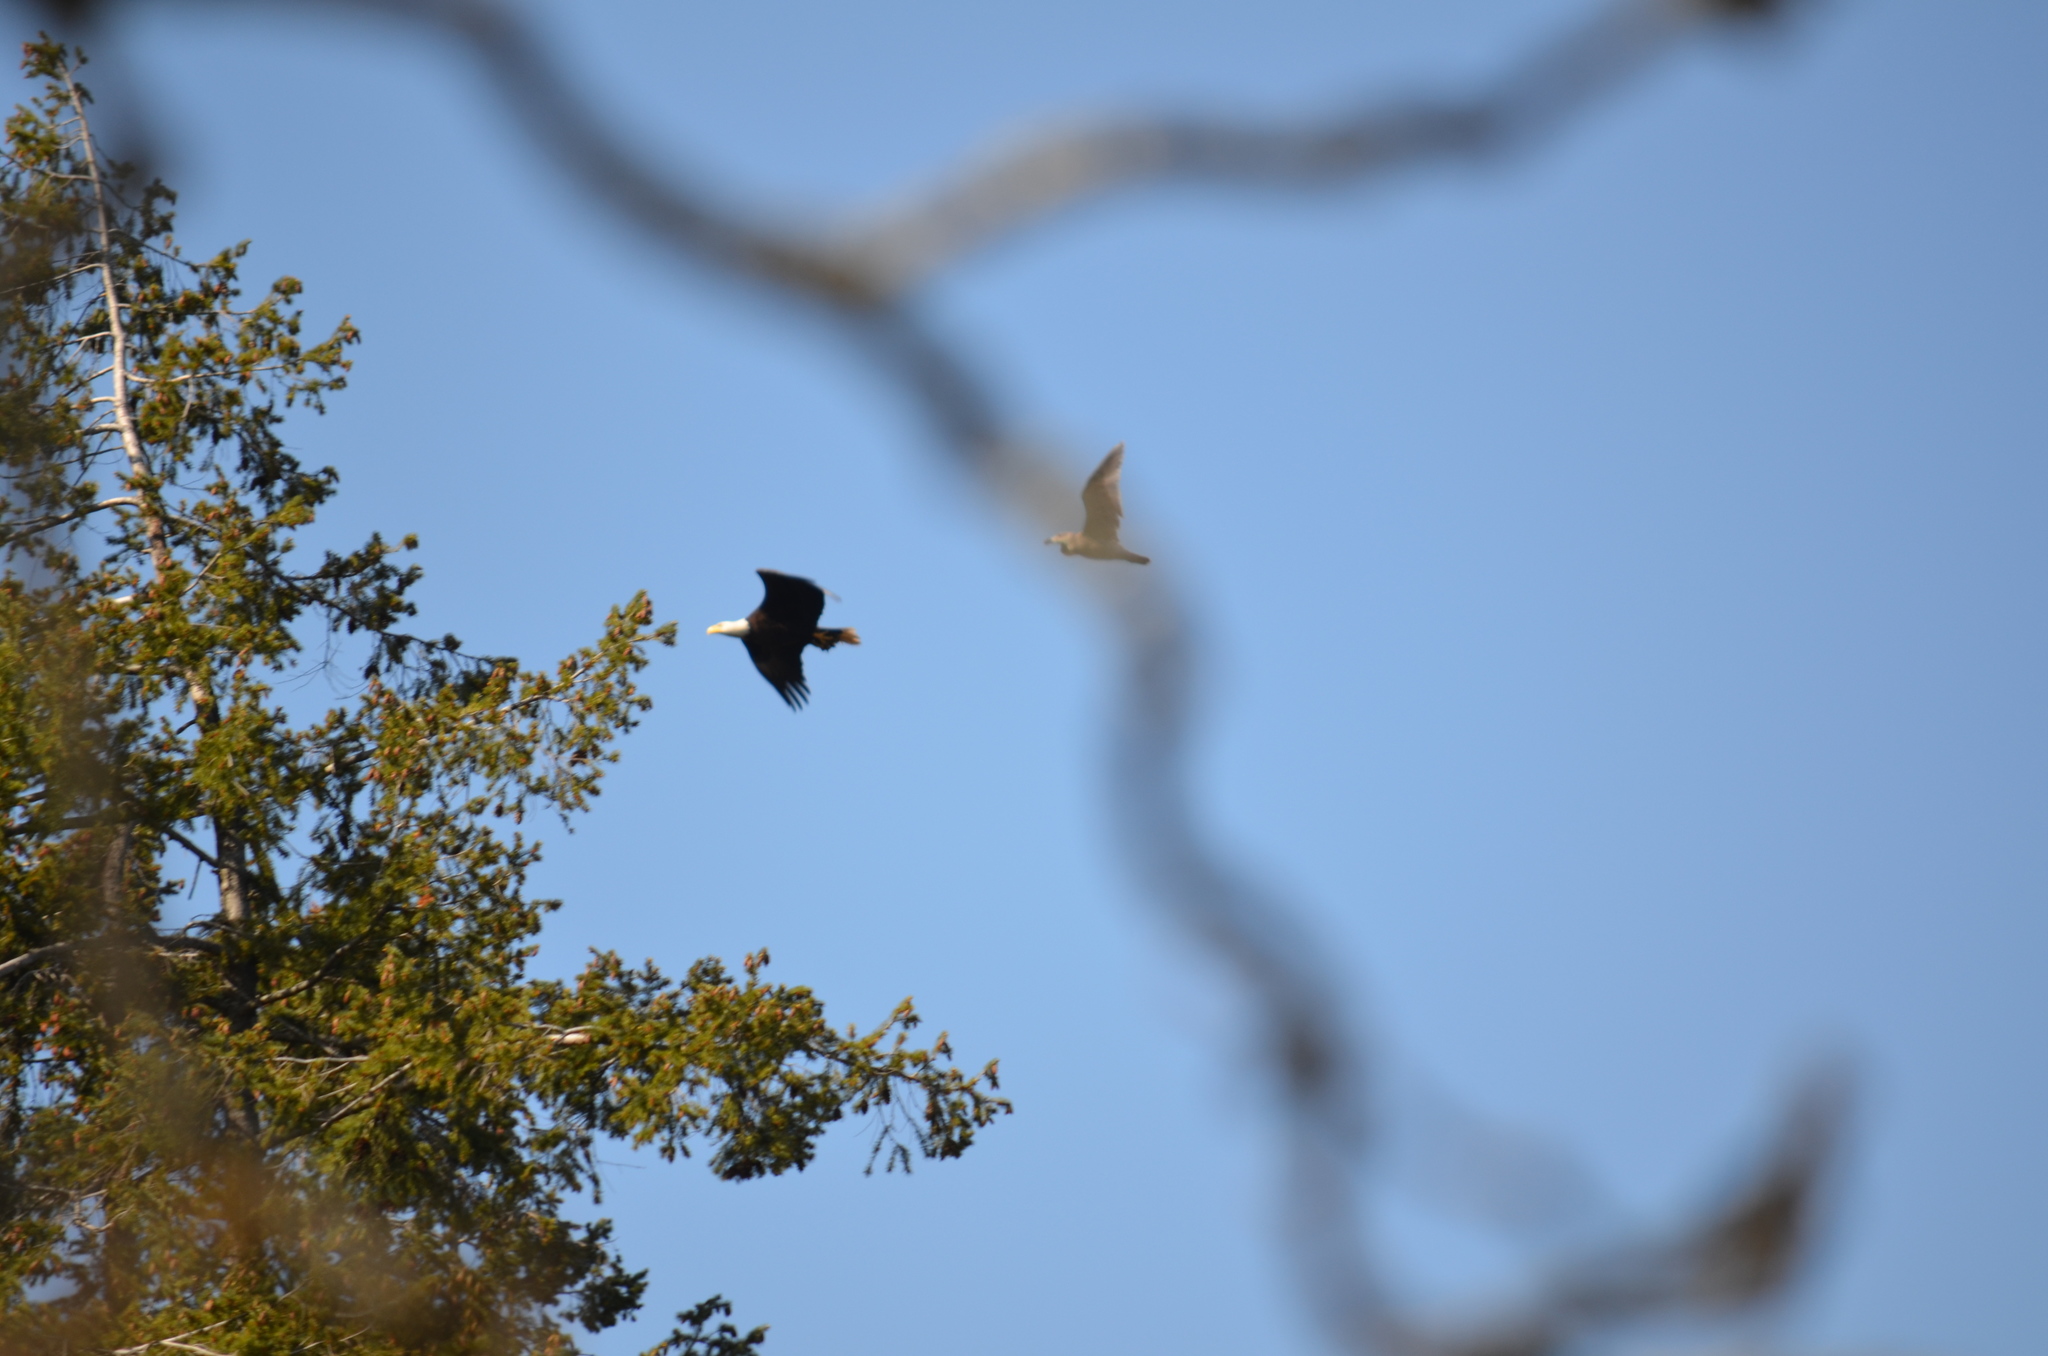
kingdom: Animalia
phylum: Chordata
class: Aves
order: Accipitriformes
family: Accipitridae
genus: Haliaeetus
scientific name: Haliaeetus leucocephalus
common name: Bald eagle
